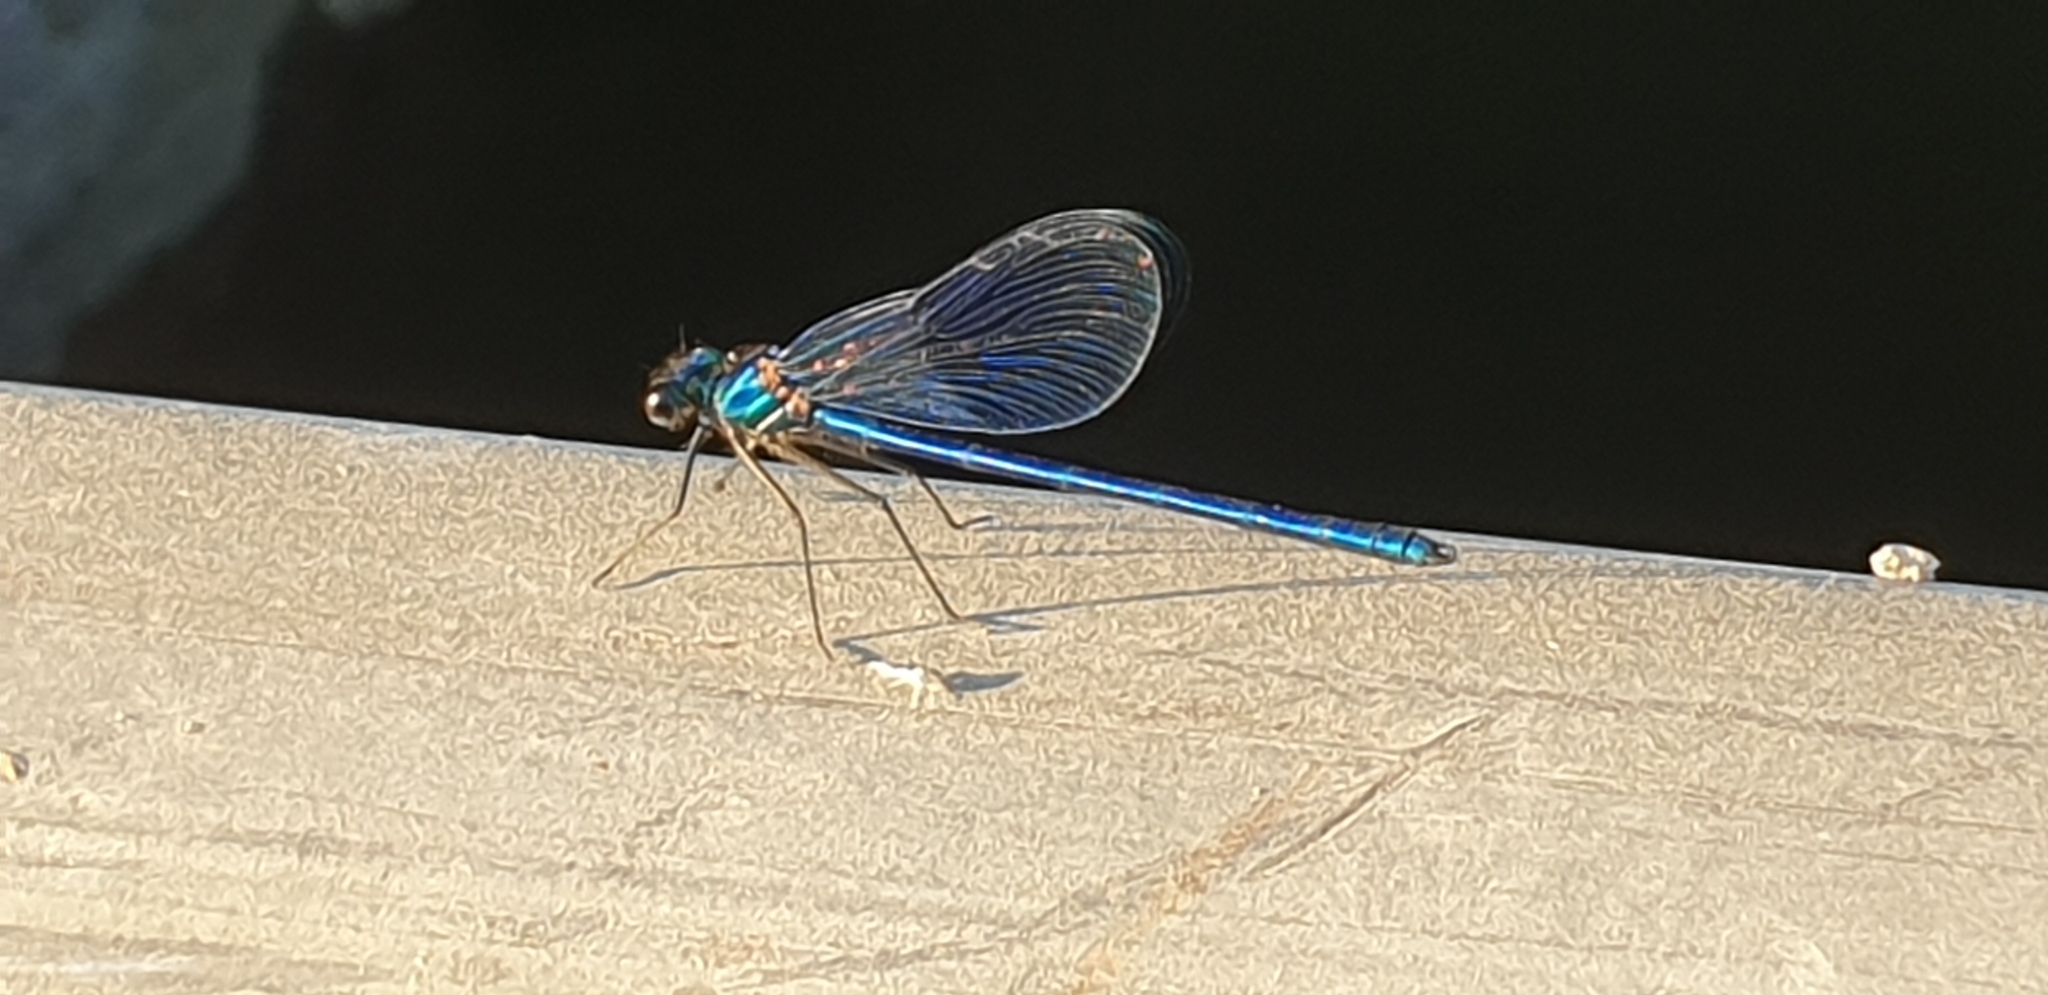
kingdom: Animalia
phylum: Arthropoda
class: Insecta
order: Odonata
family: Calopterygidae
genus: Calopteryx
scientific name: Calopteryx xanthostoma
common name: Western demoiselle
